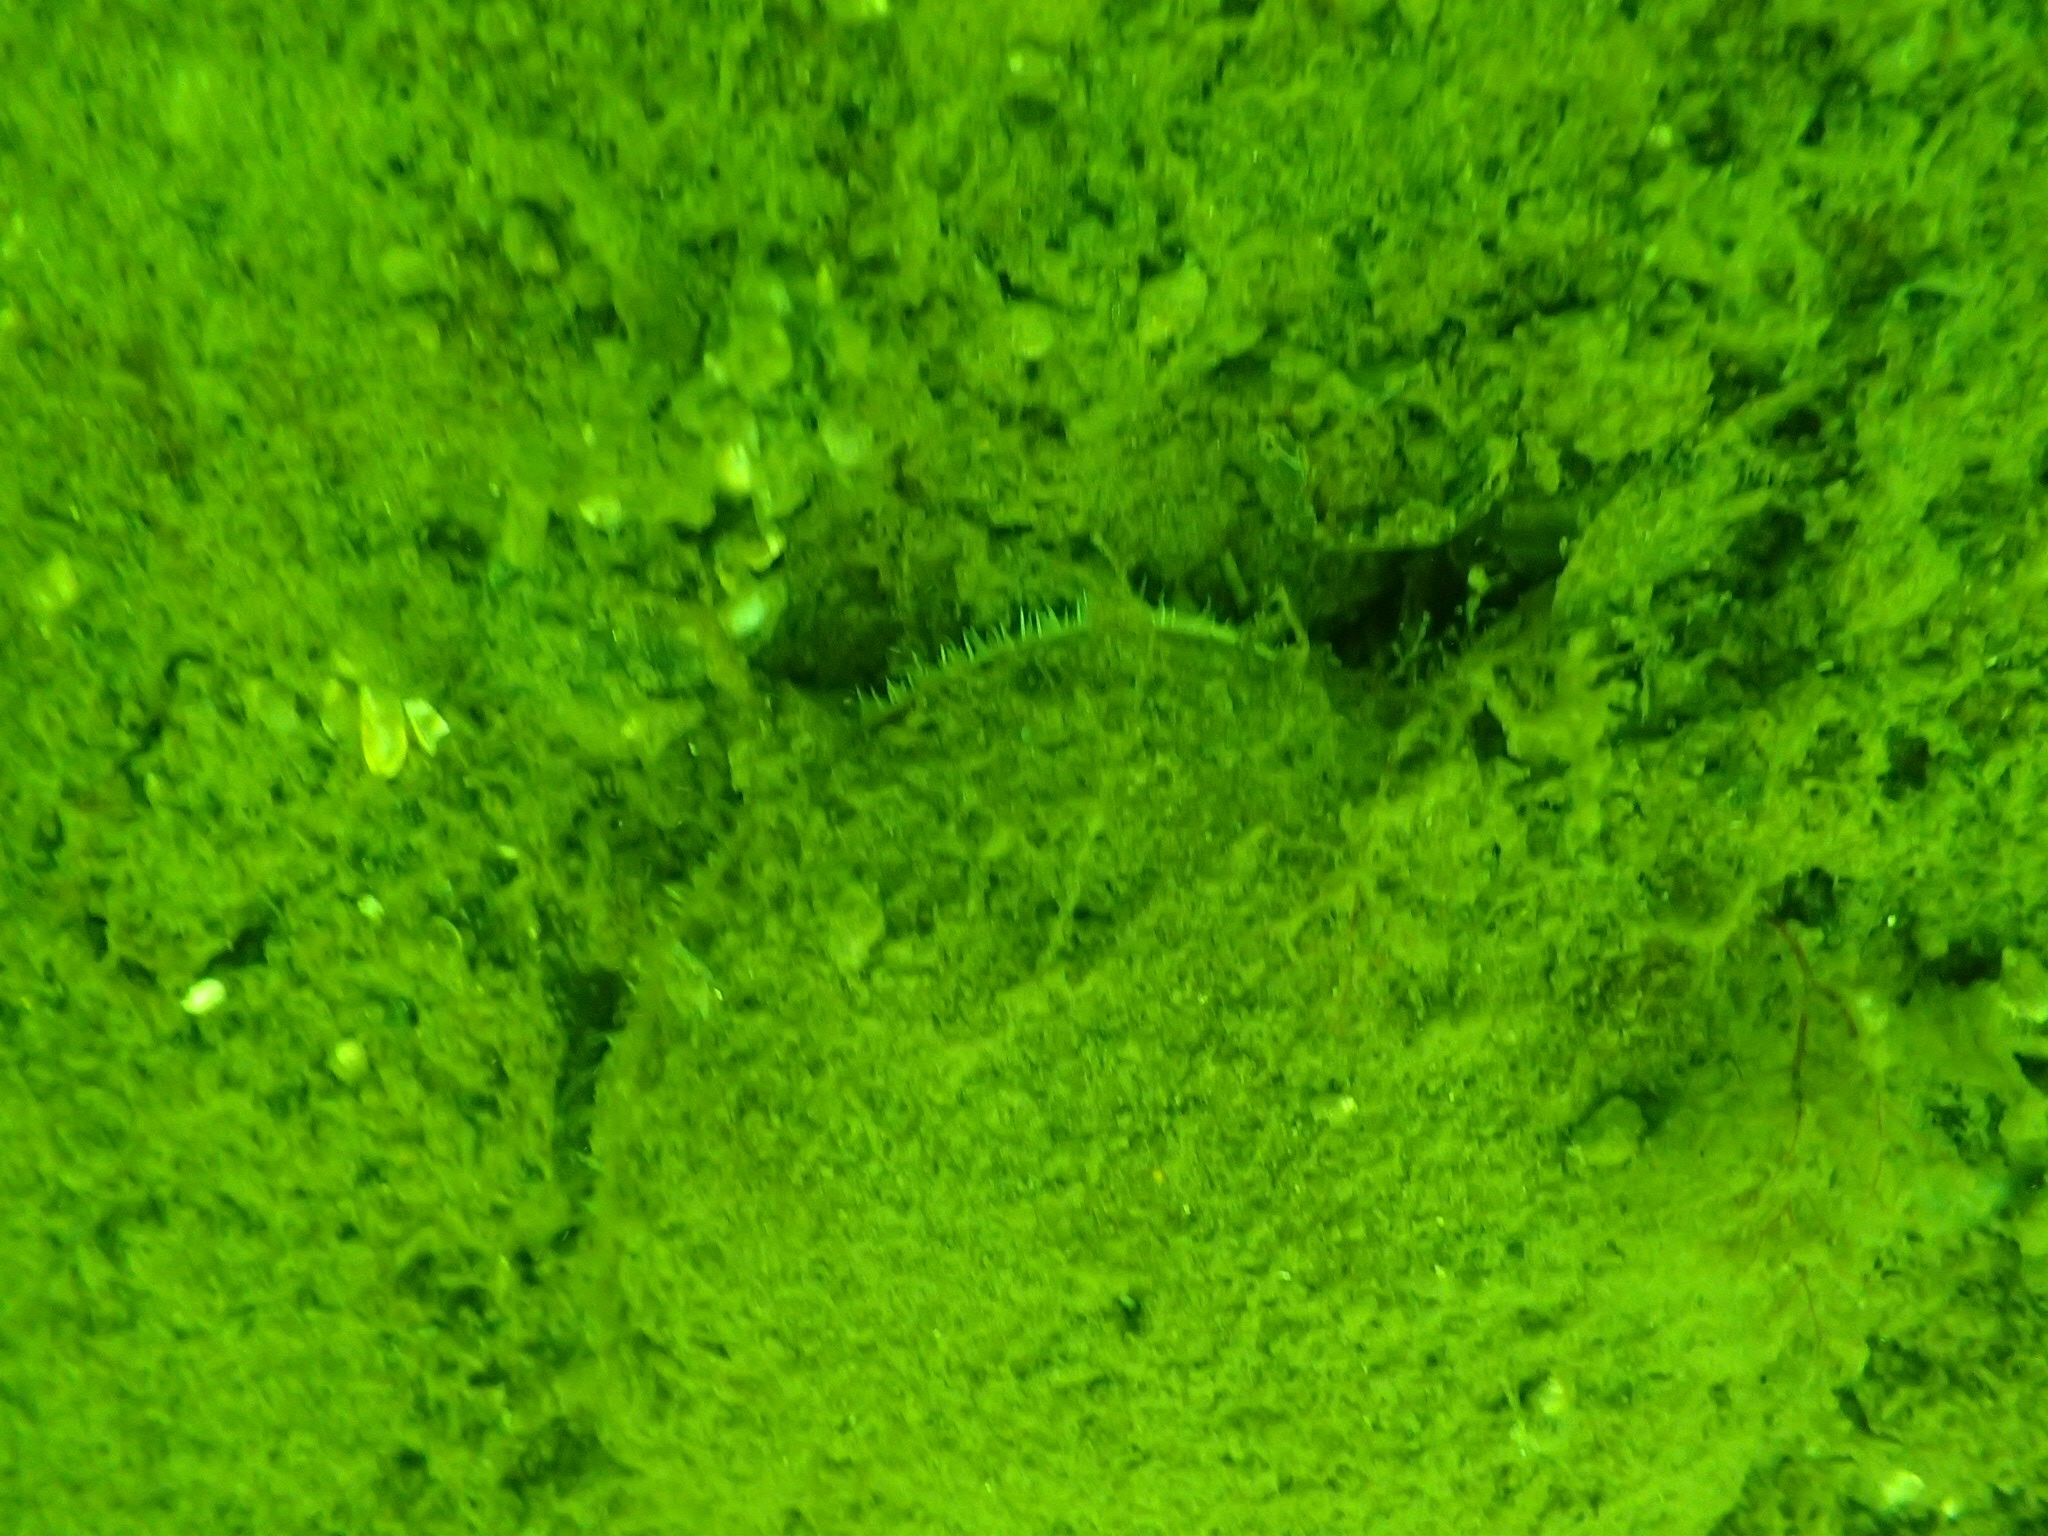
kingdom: Animalia
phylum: Mollusca
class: Bivalvia
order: Pectinida
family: Pectinidae
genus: Placopecten
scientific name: Placopecten magellanicus
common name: American sea scallop
